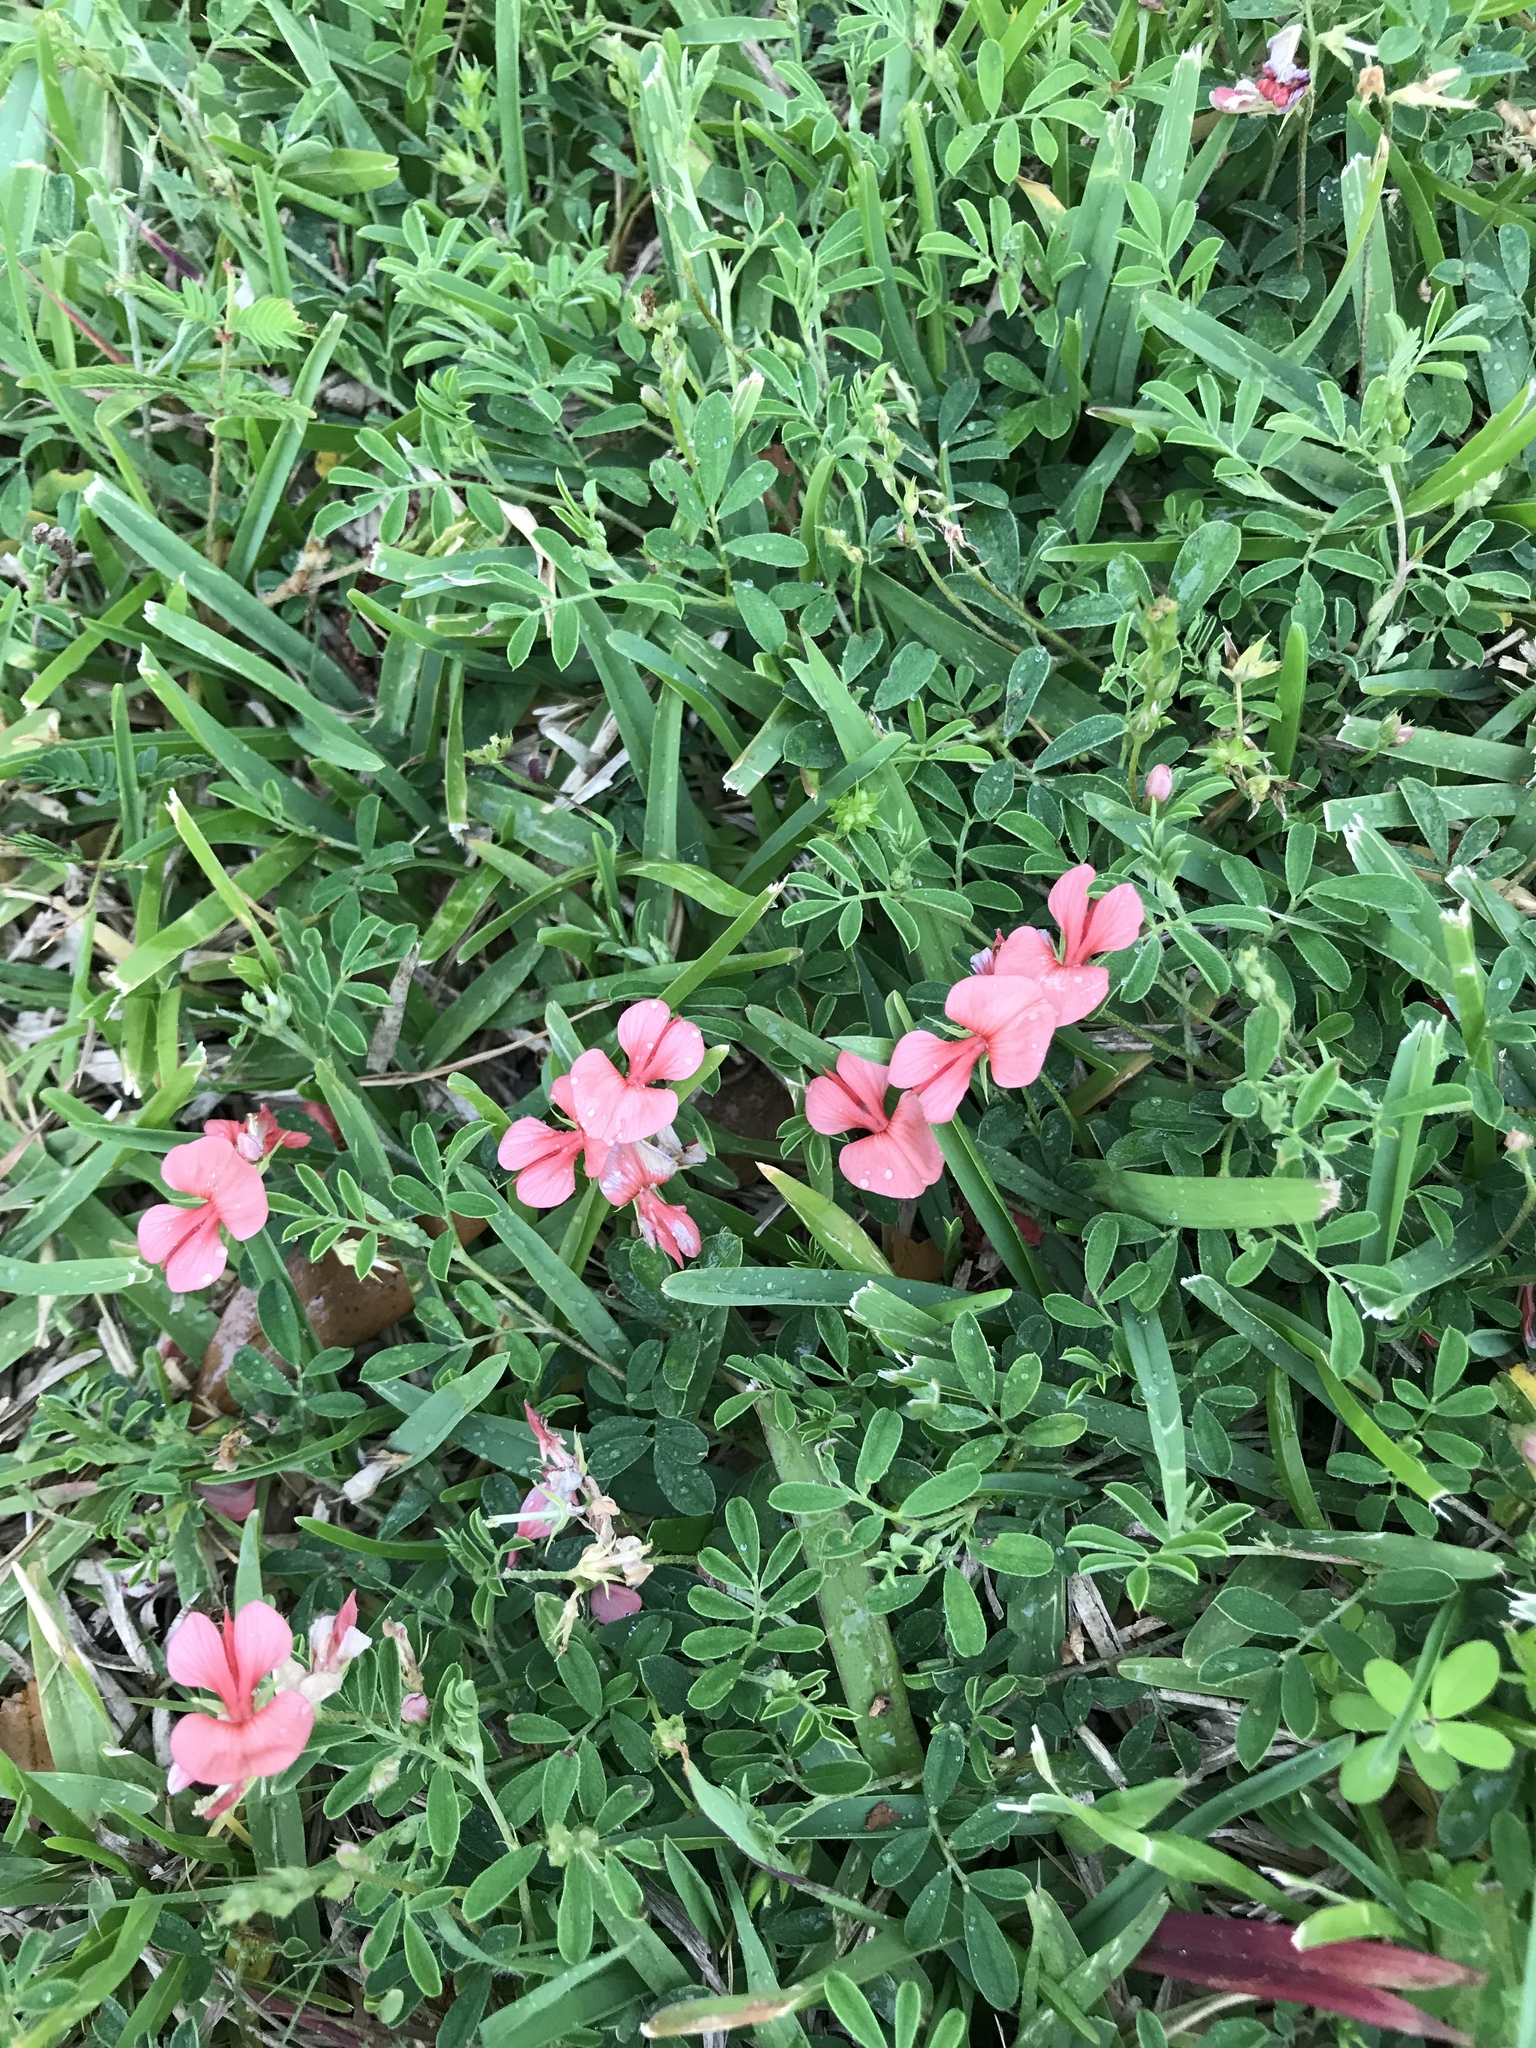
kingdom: Plantae
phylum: Tracheophyta
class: Magnoliopsida
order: Fabales
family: Fabaceae
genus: Indigofera
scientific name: Indigofera miniata
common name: Coast indigo
